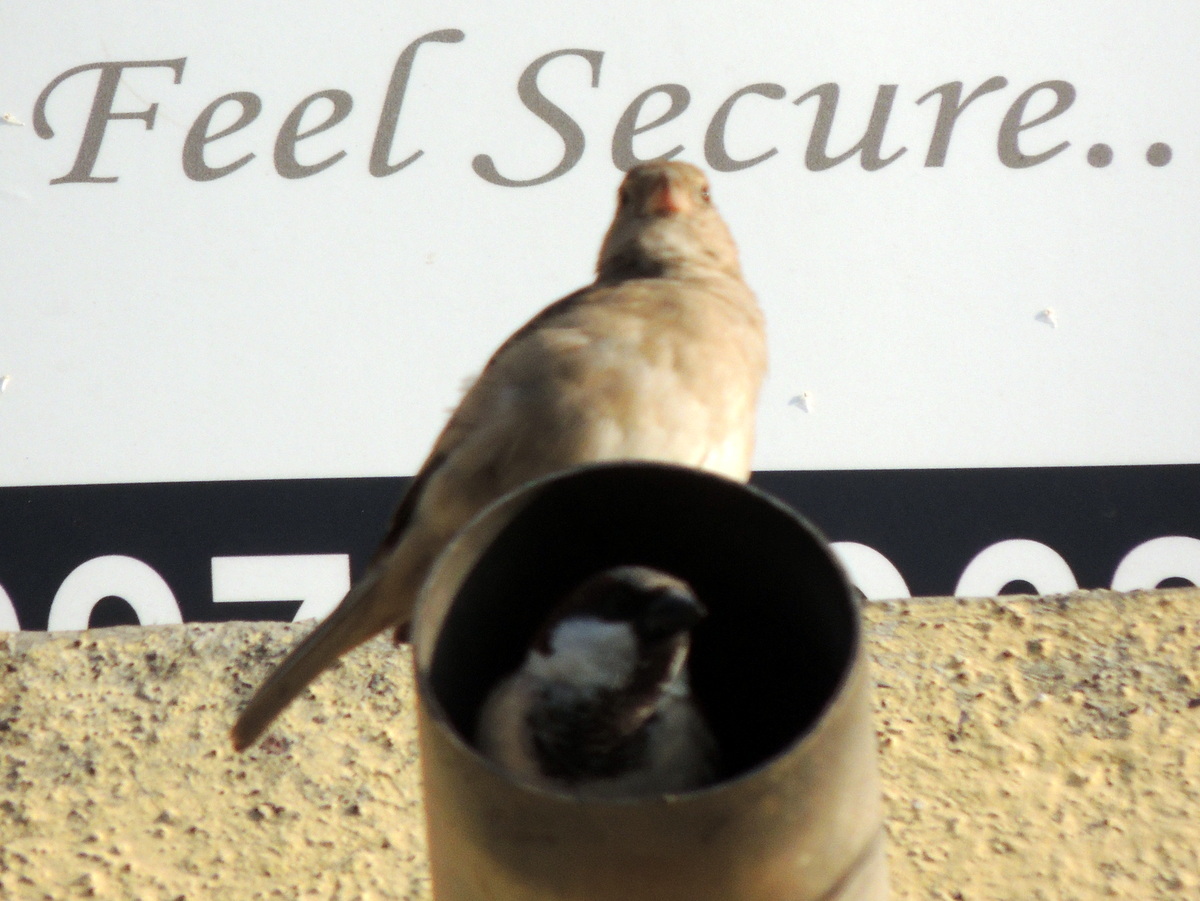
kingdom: Animalia
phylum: Chordata
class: Aves
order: Passeriformes
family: Passeridae
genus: Passer
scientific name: Passer domesticus
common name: House sparrow
